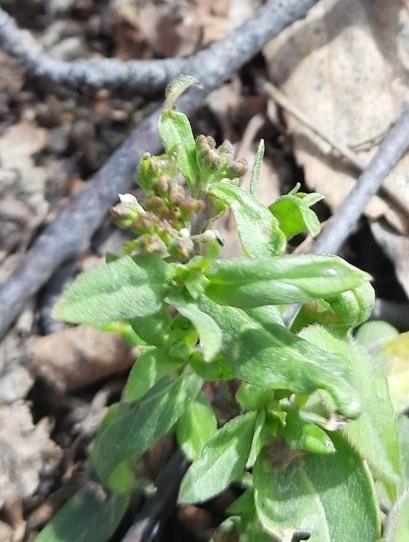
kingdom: Plantae
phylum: Tracheophyta
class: Magnoliopsida
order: Brassicales
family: Brassicaceae
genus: Erysimum
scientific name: Erysimum cheiranthoides
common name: Treacle mustard
